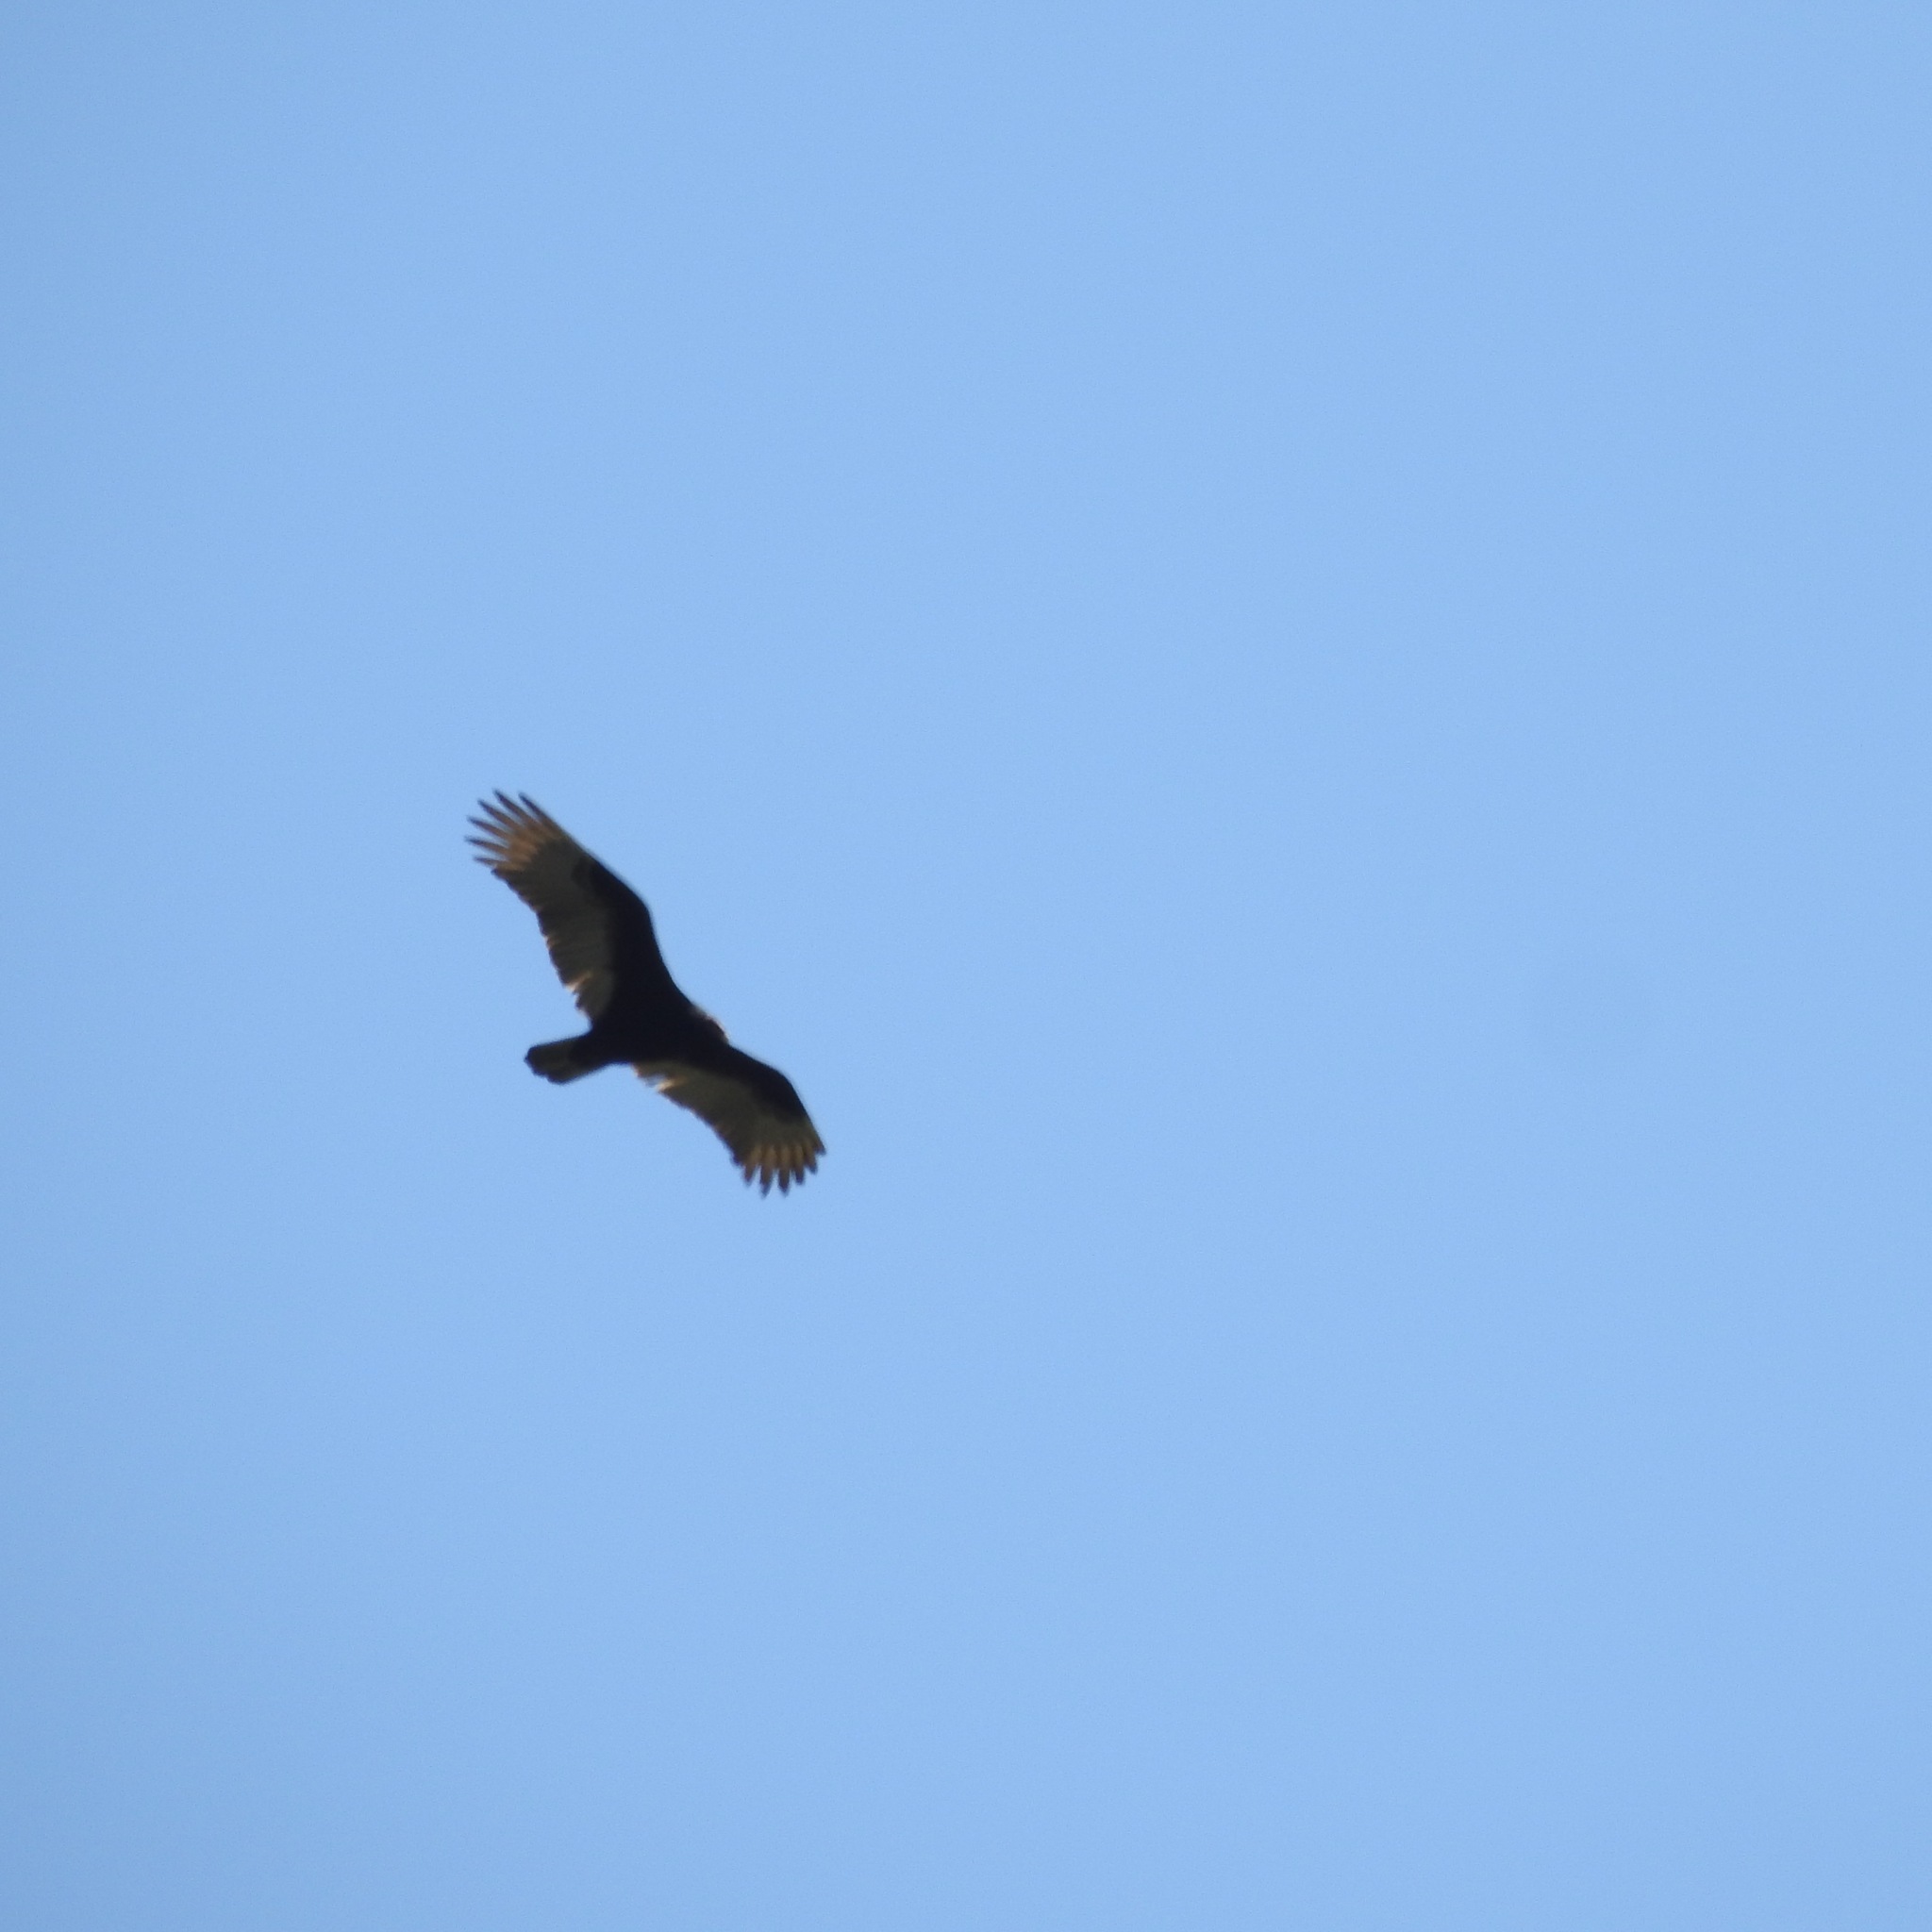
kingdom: Animalia
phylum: Chordata
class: Aves
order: Accipitriformes
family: Cathartidae
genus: Cathartes
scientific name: Cathartes aura
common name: Turkey vulture
